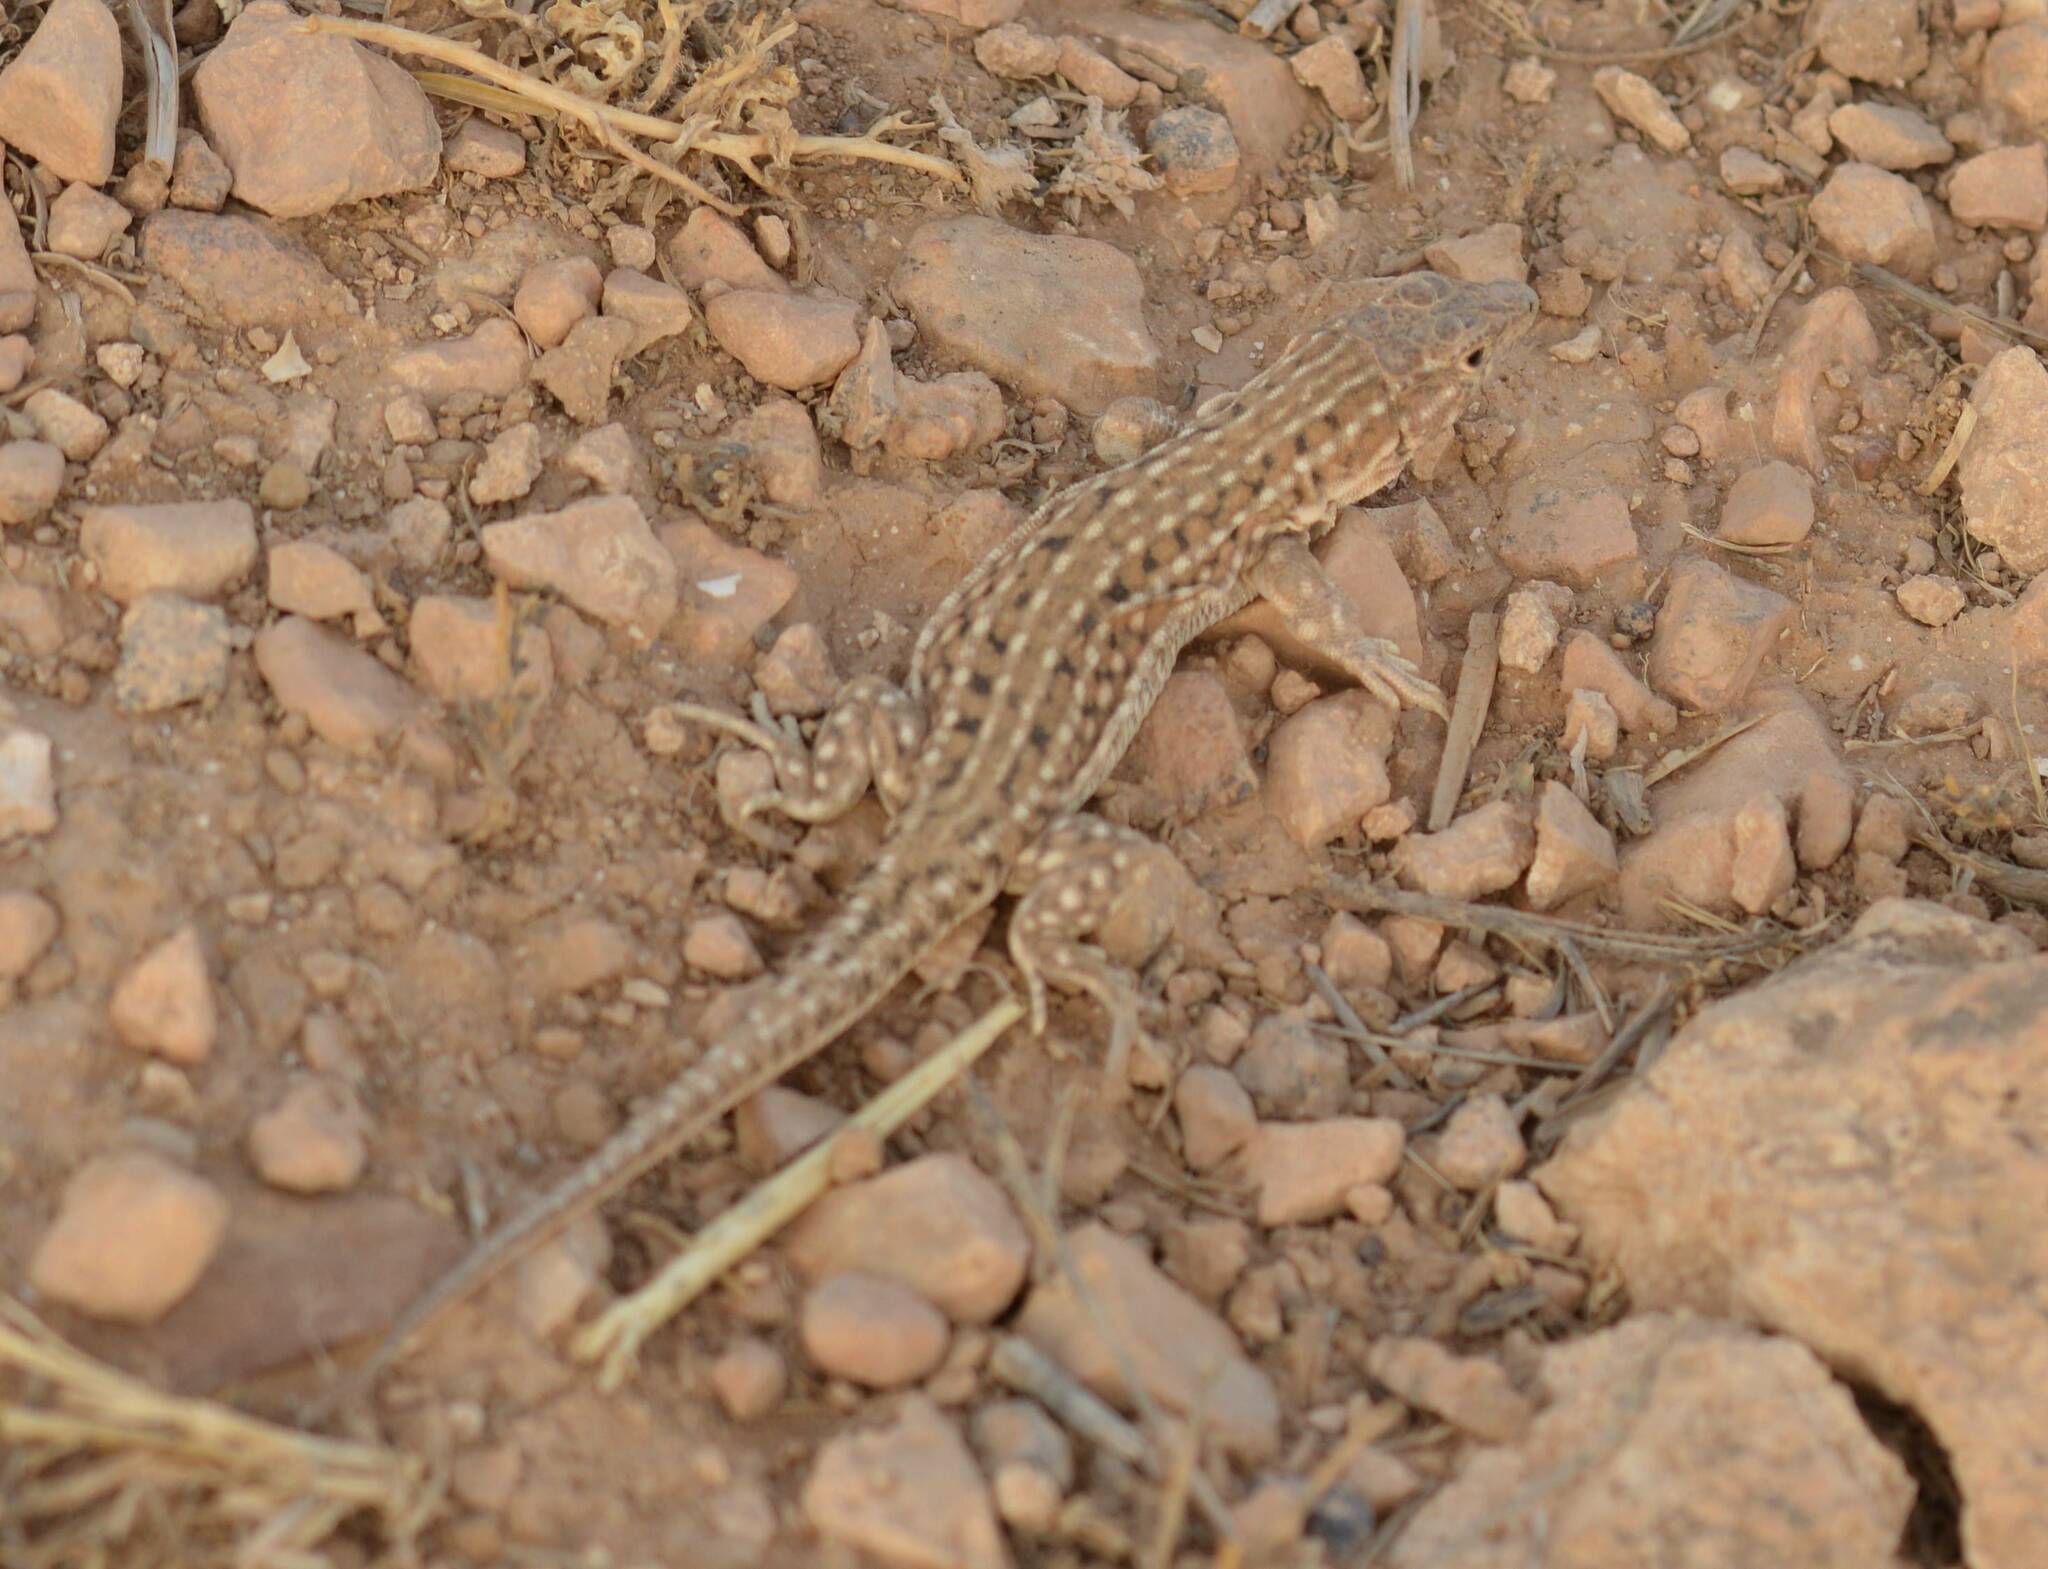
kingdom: Animalia
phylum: Chordata
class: Squamata
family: Lacertidae
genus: Acanthodactylus
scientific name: Acanthodactylus erythrurus
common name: Spiny-footed lizard
